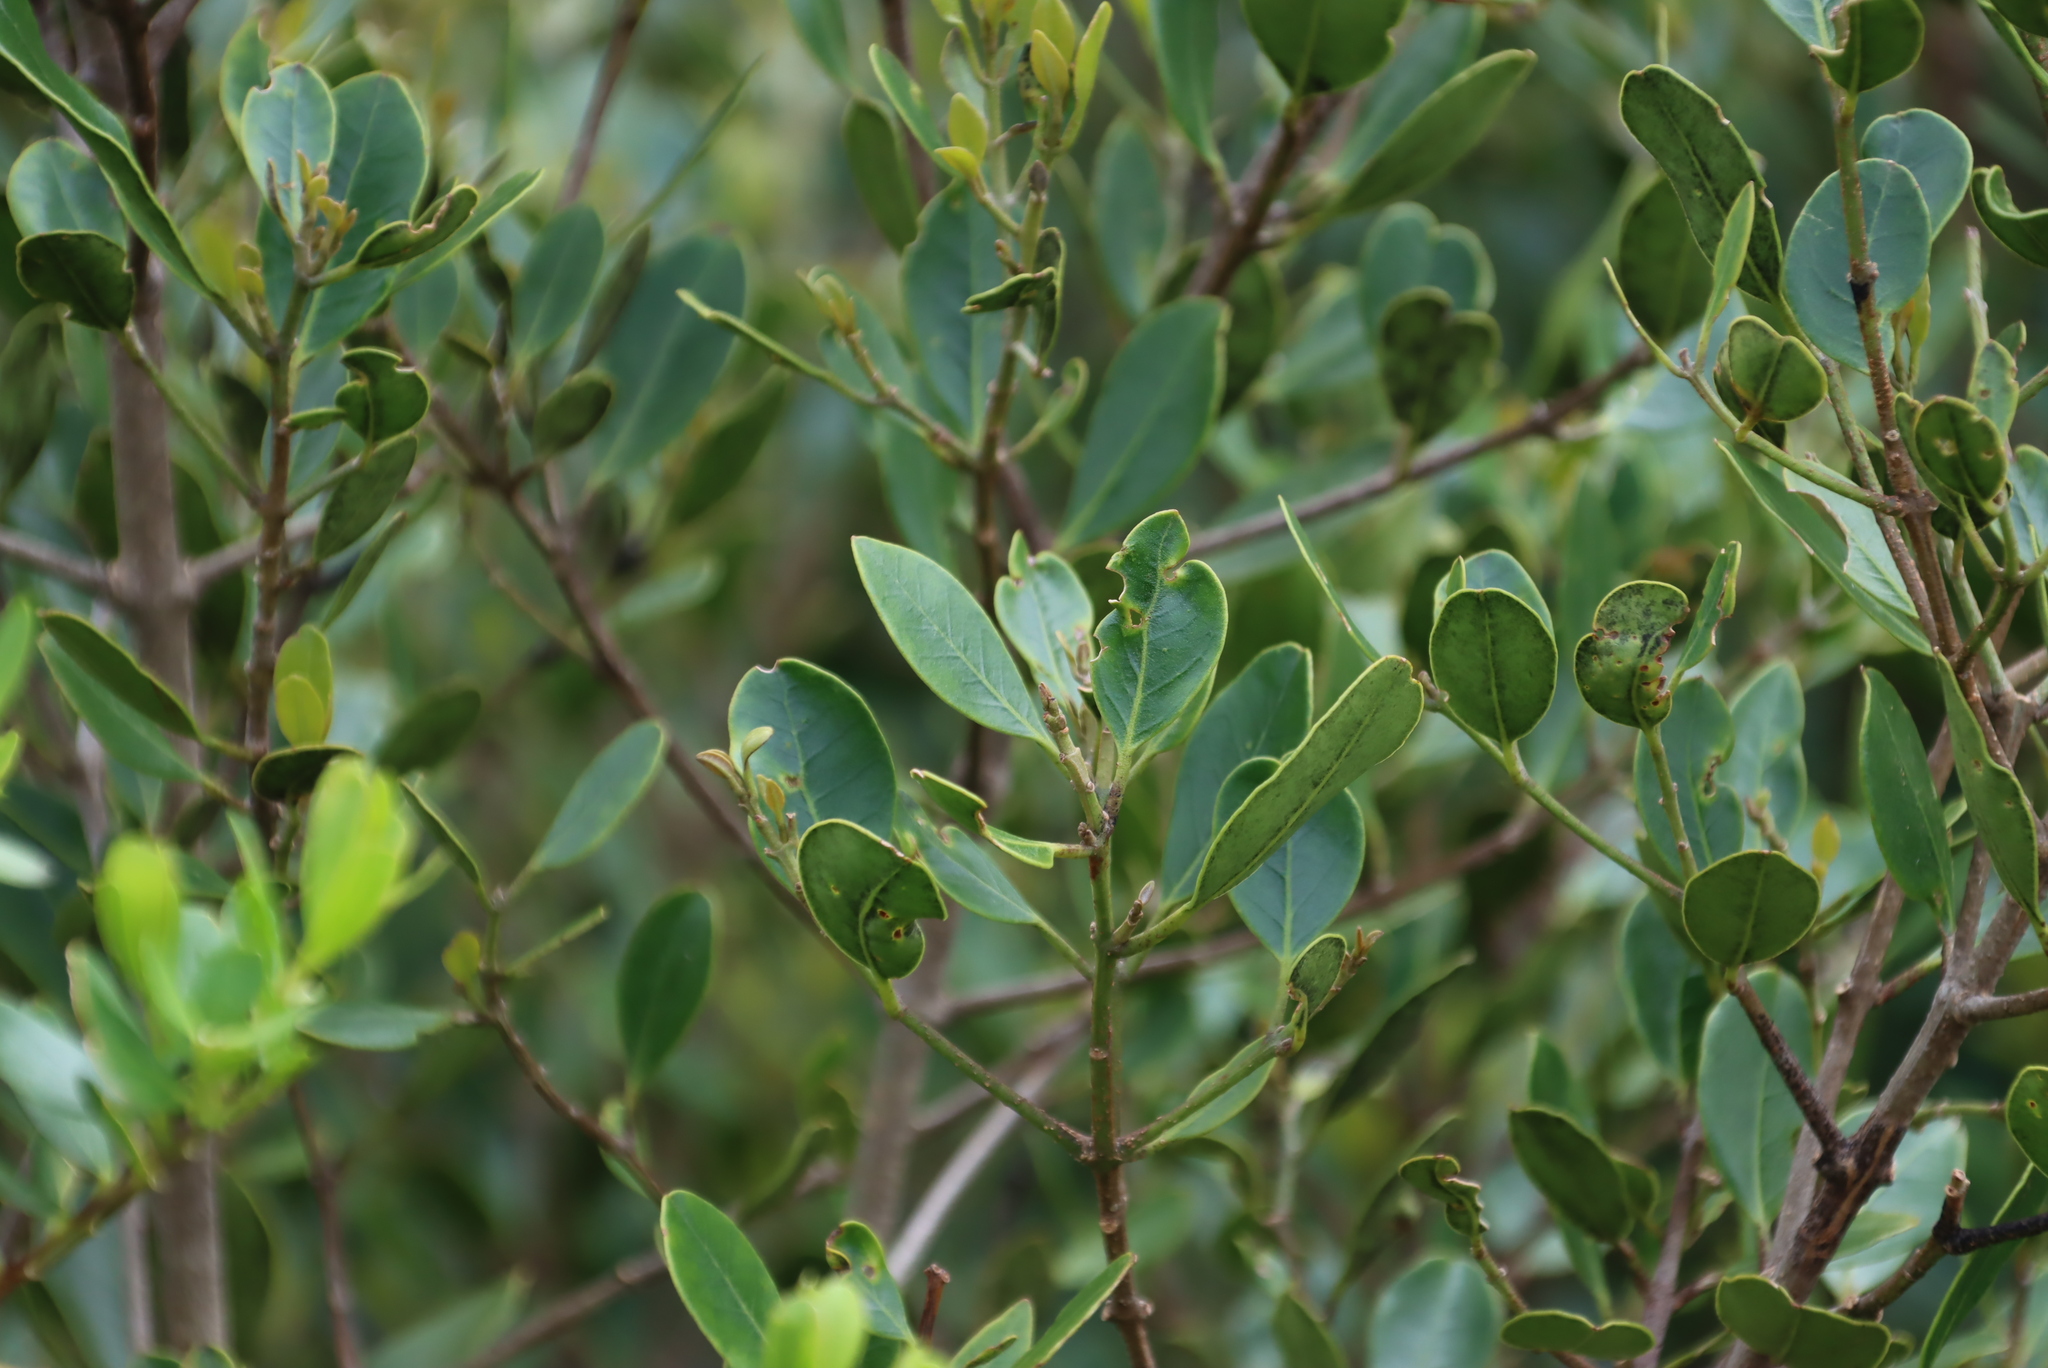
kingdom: Plantae
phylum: Tracheophyta
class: Magnoliopsida
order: Lamiales
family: Oleaceae
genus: Olea
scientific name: Olea capensis
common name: Black ironwood
